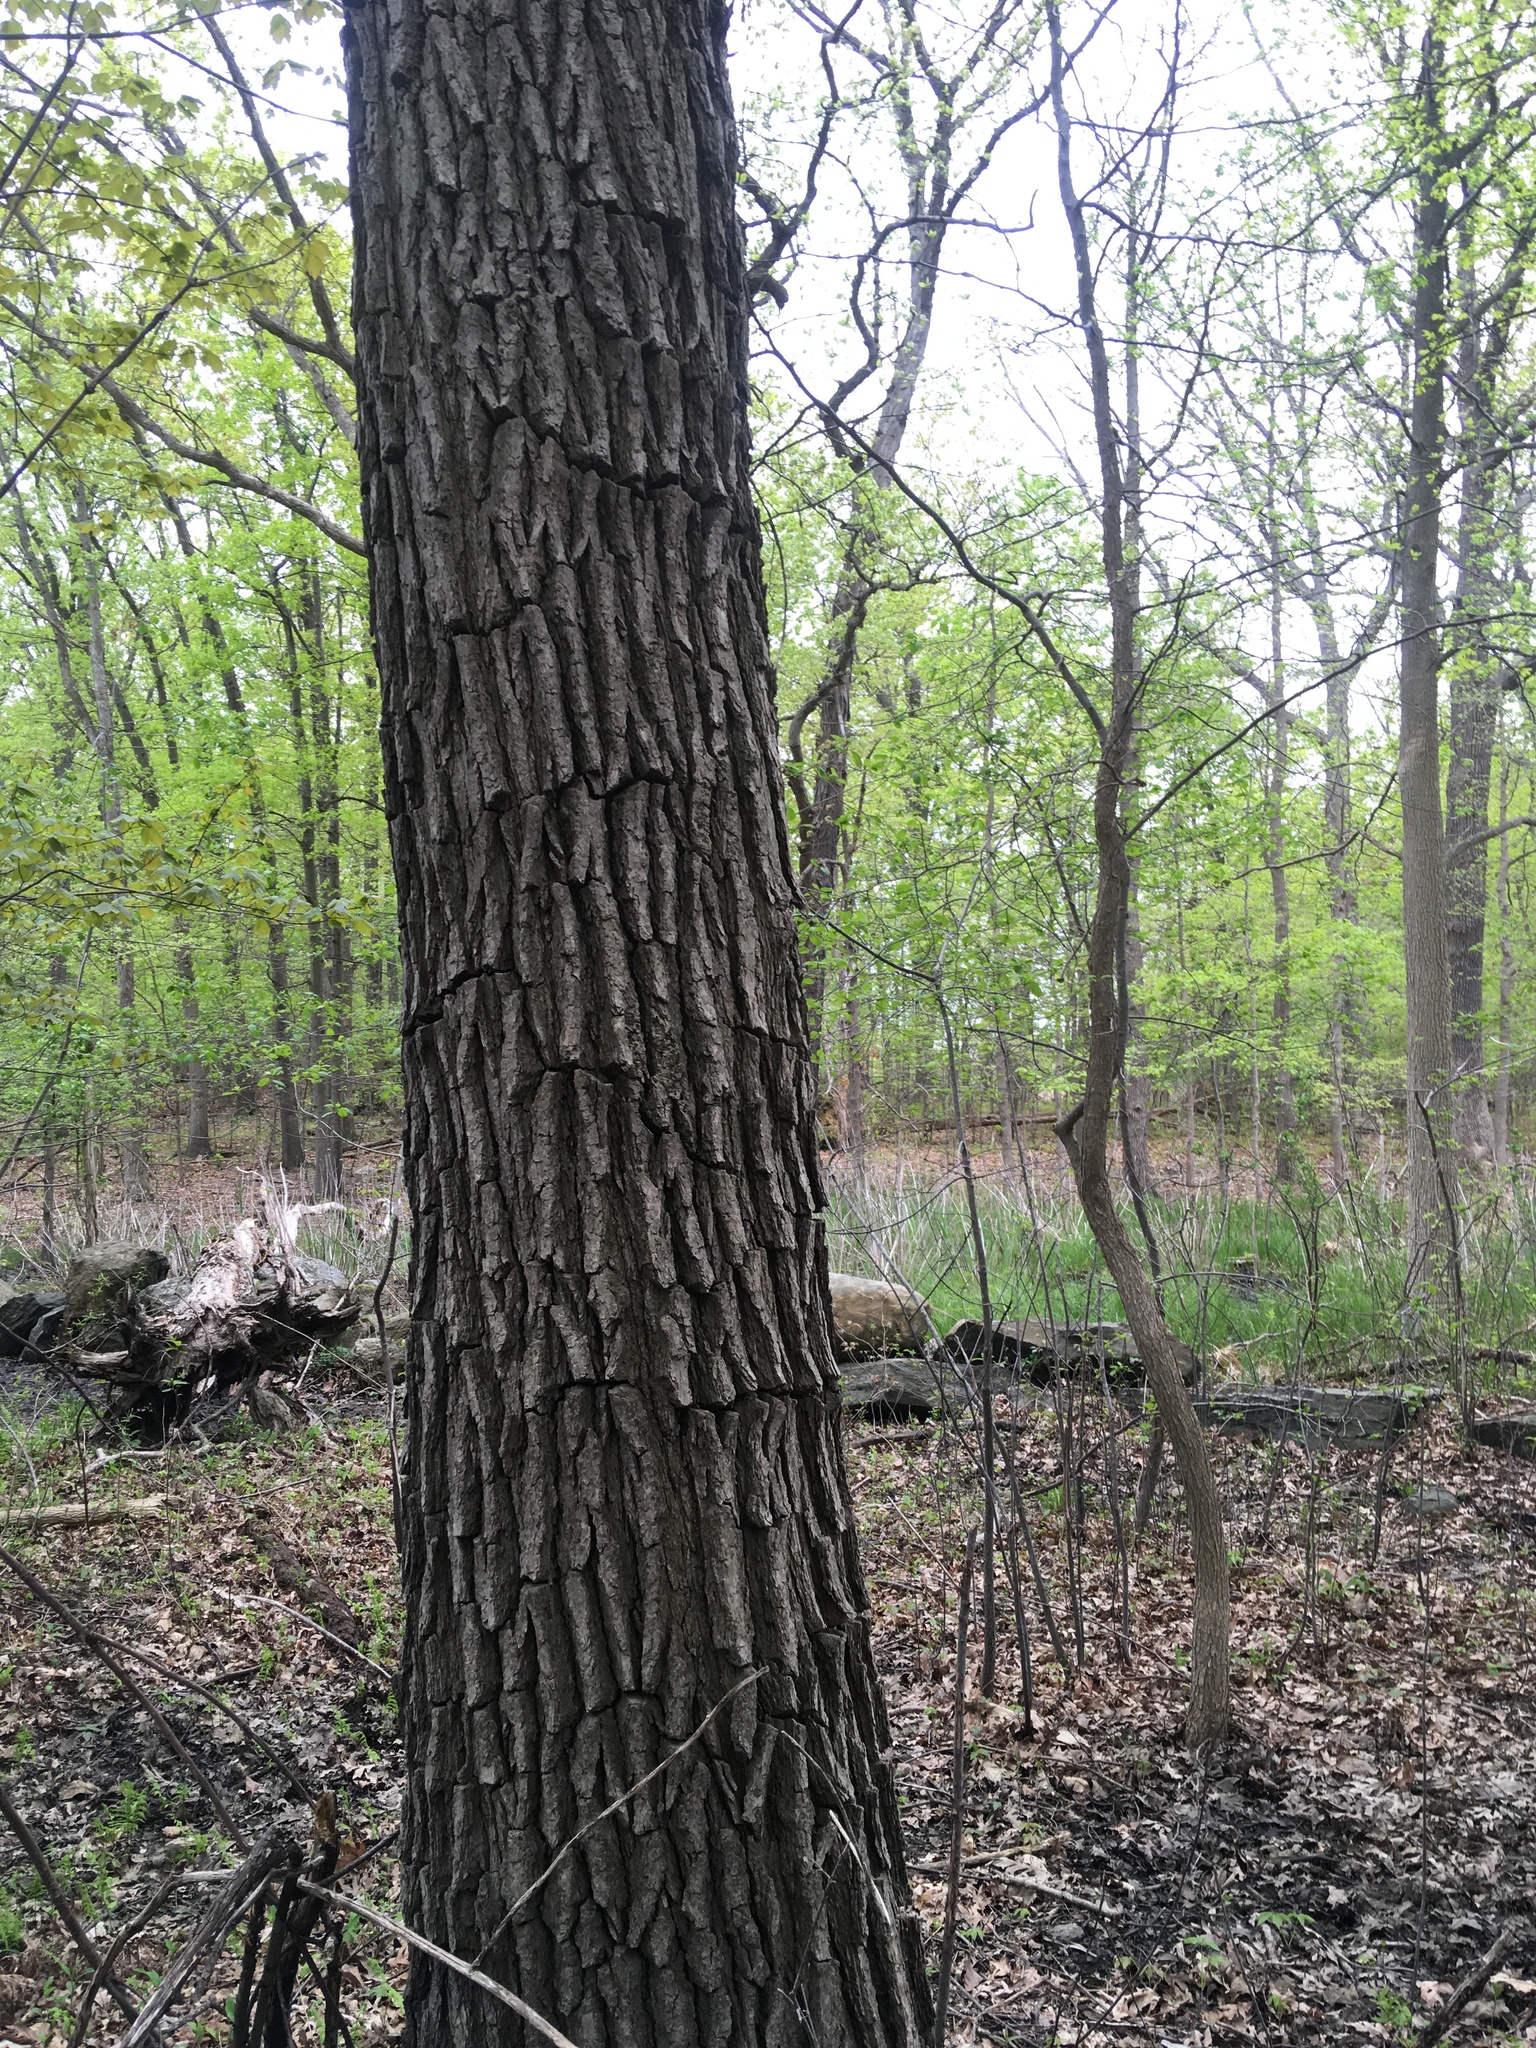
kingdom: Plantae
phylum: Tracheophyta
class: Magnoliopsida
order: Fagales
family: Fagaceae
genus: Quercus
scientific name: Quercus bicolor
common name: Swamp white oak
